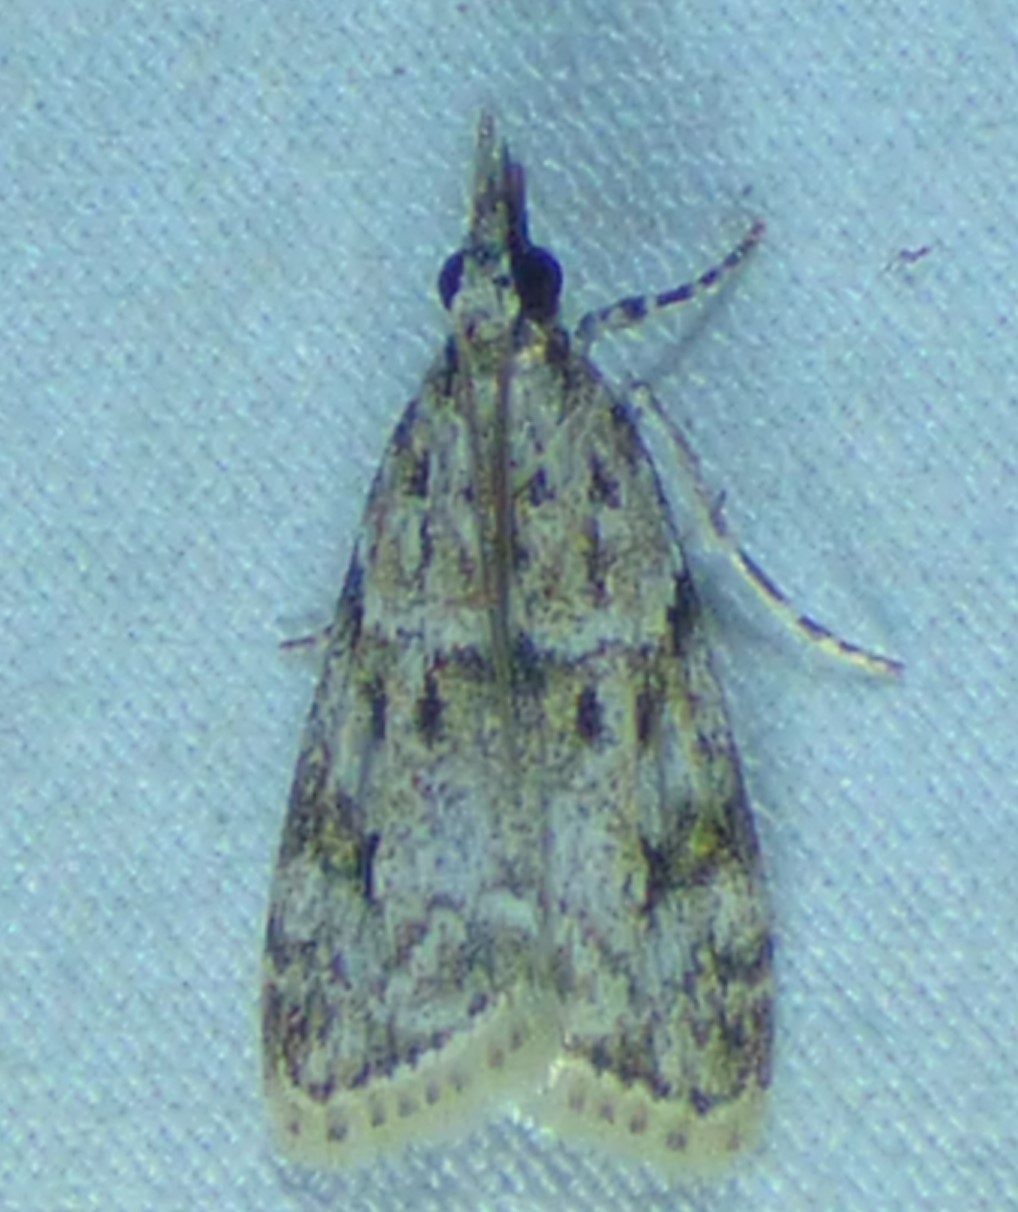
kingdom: Animalia
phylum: Arthropoda
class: Insecta
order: Lepidoptera
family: Crambidae
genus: Eudonia
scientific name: Eudonia heterosalis
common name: Mcdunnough's eudonia
